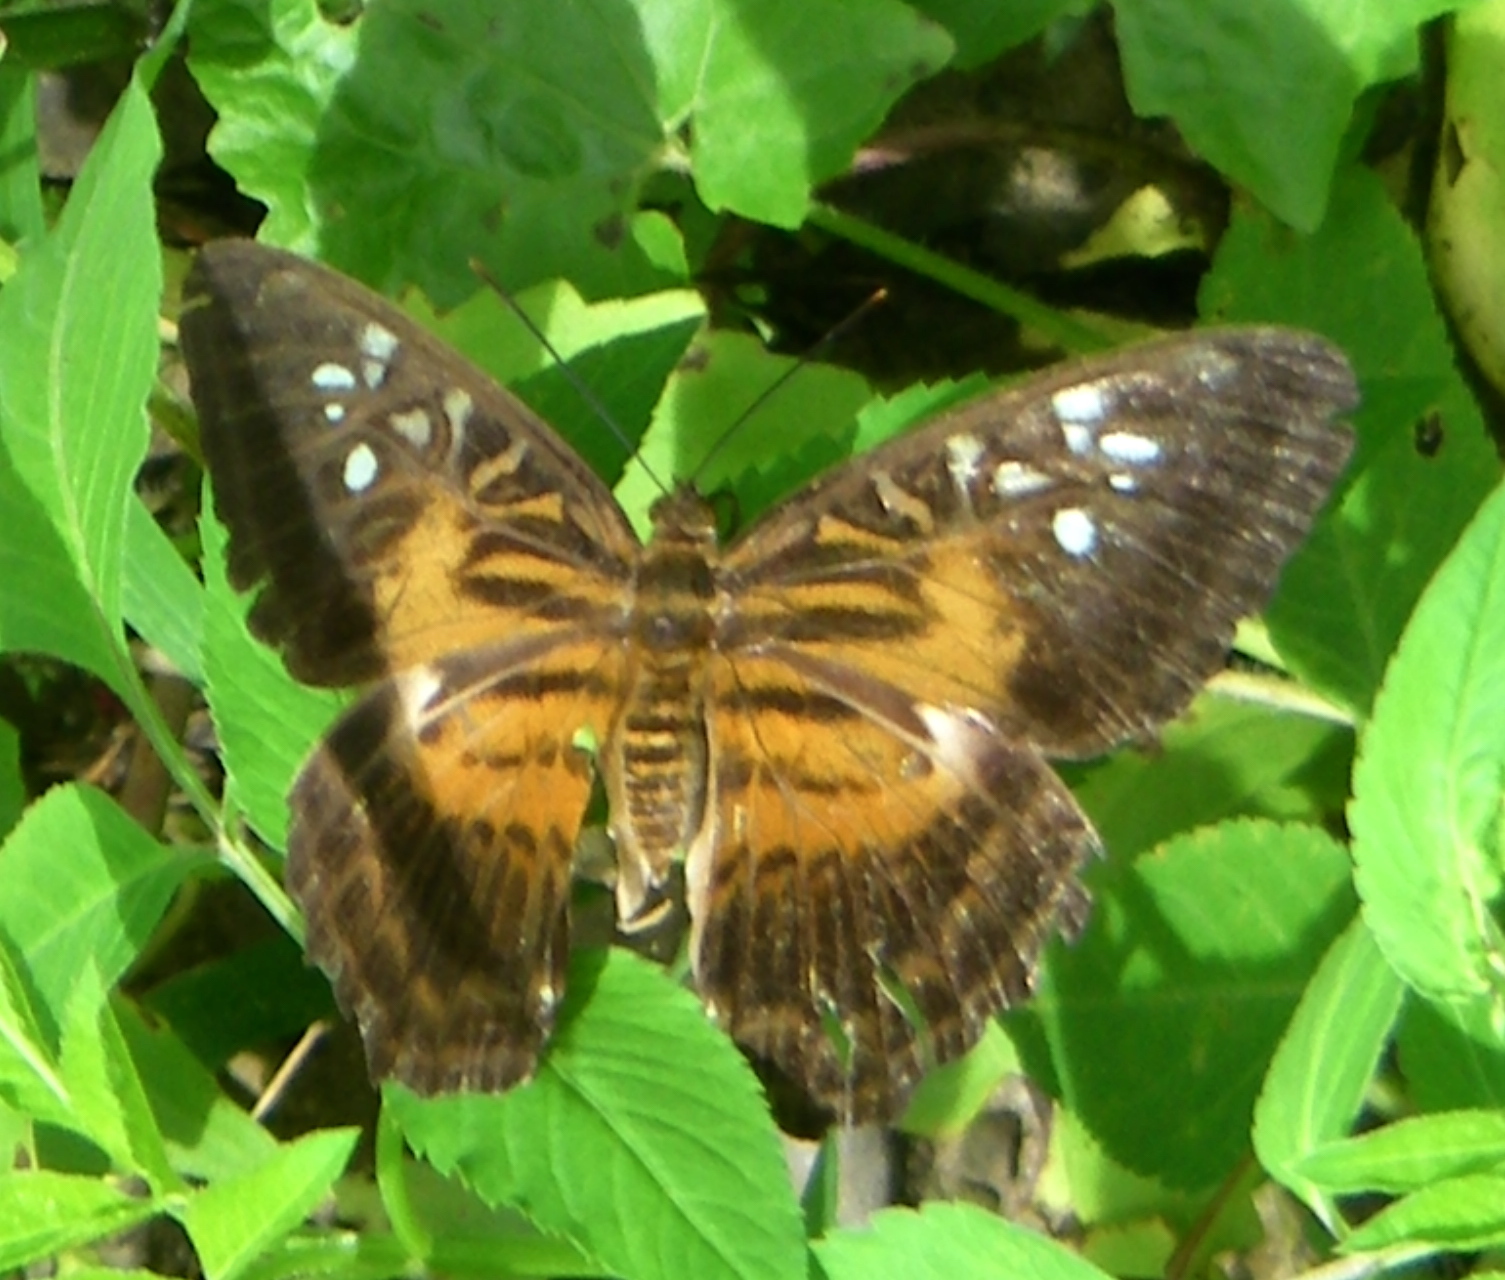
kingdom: Animalia
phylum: Arthropoda
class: Insecta
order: Lepidoptera
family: Nymphalidae
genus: Parthenos
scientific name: Parthenos tigrina
